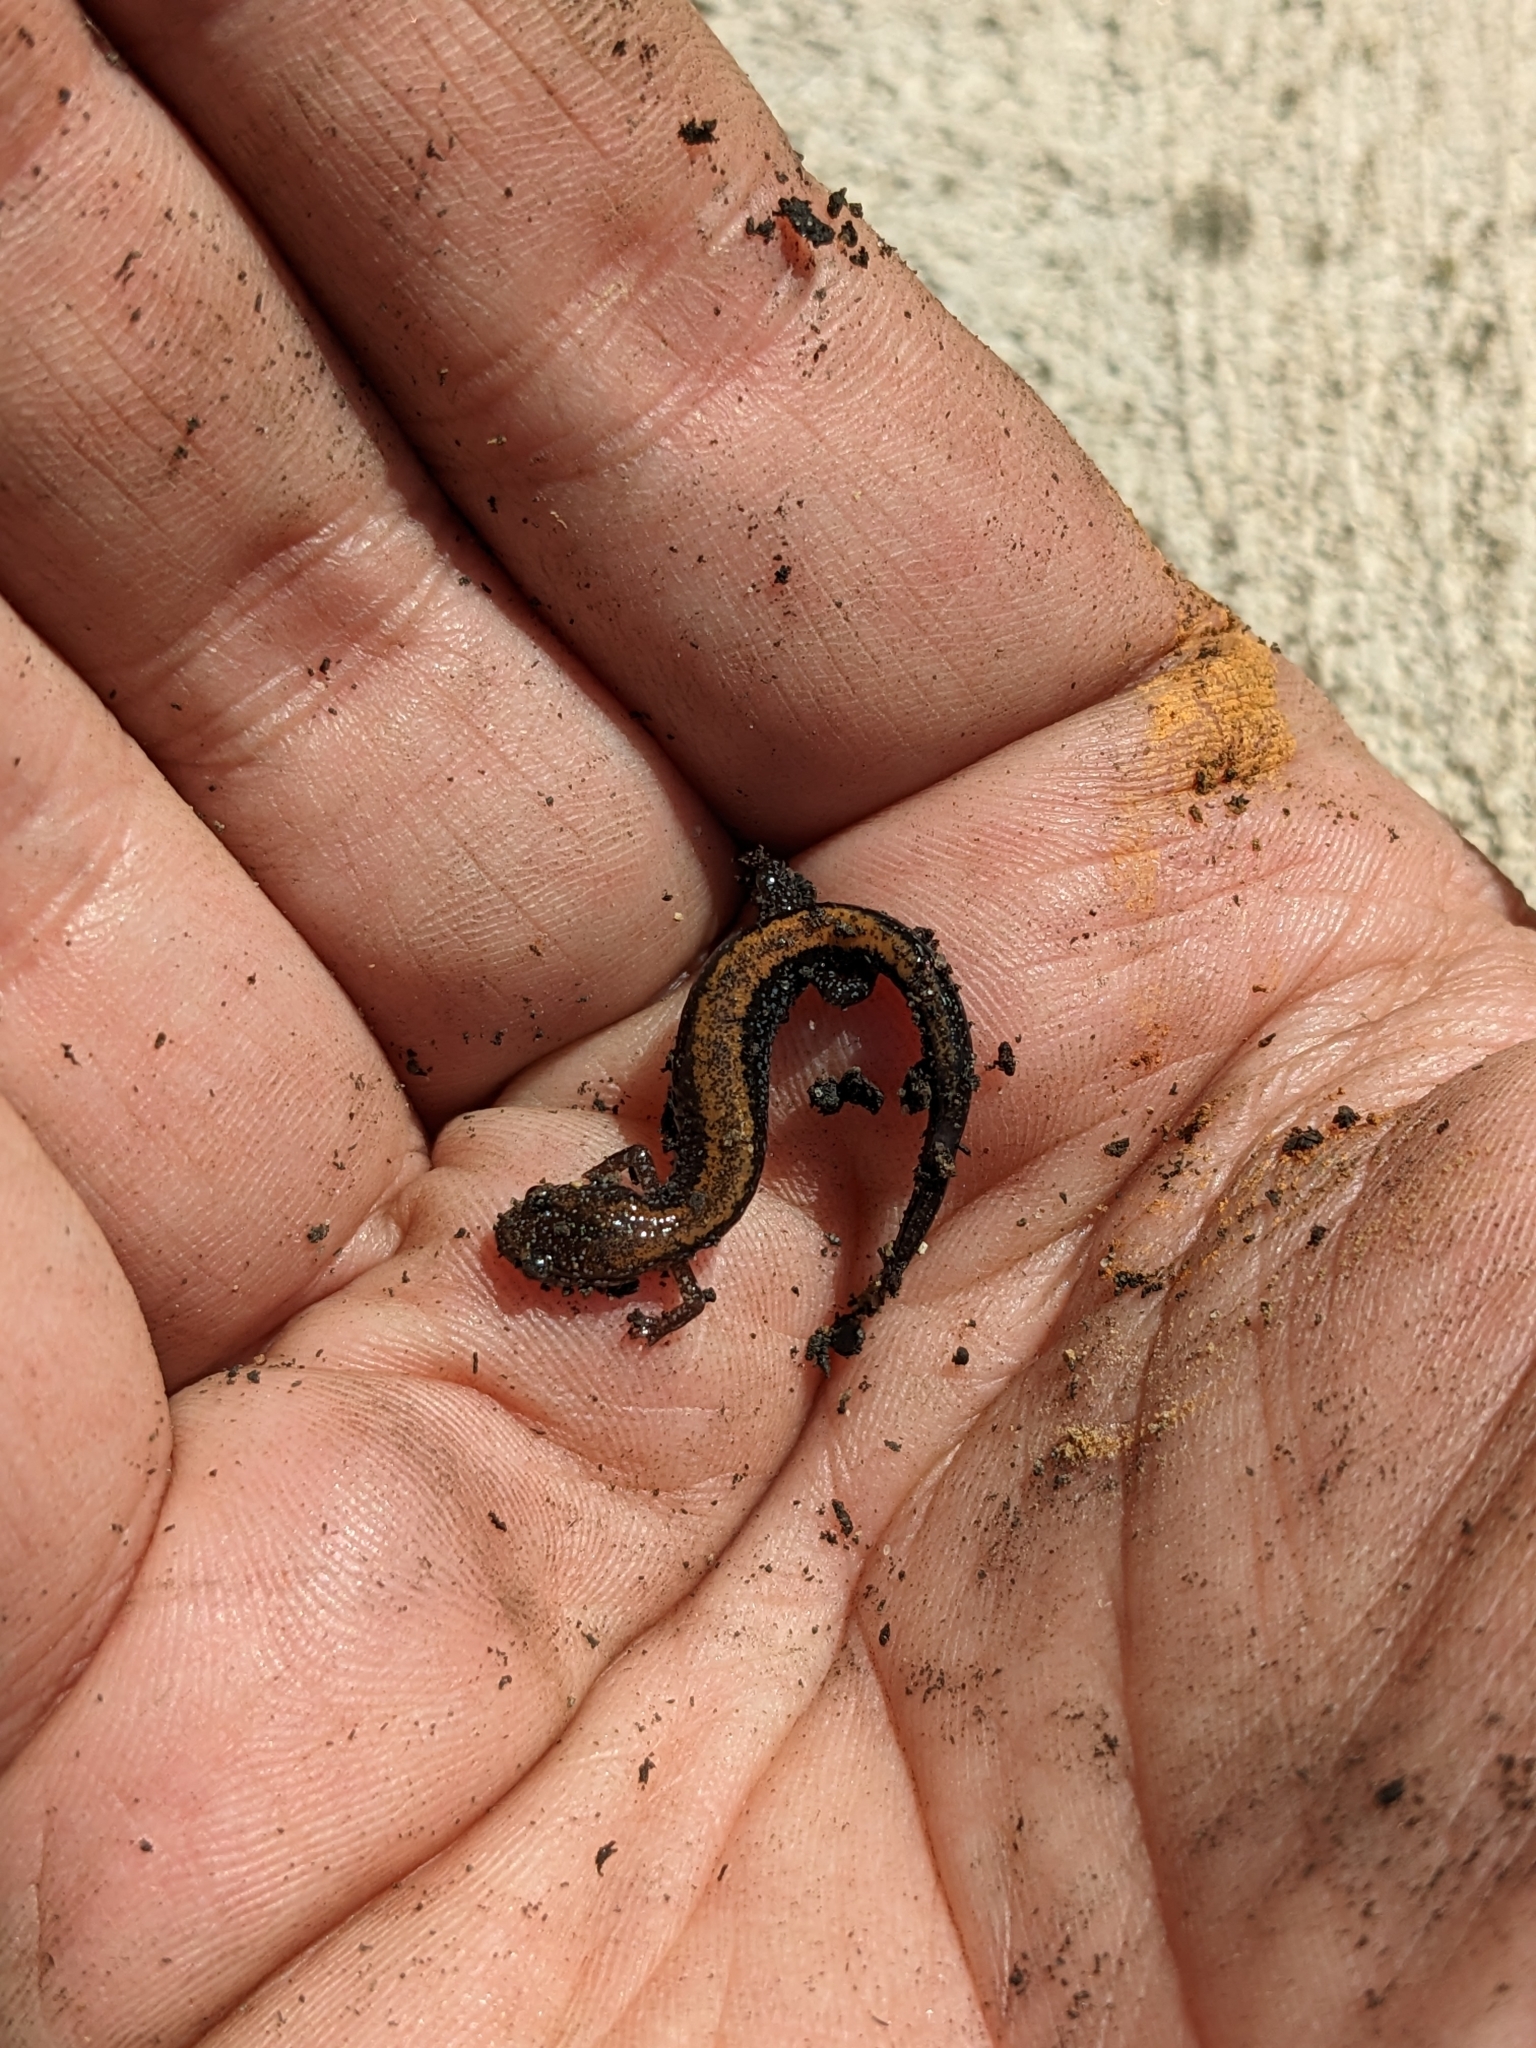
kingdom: Animalia
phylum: Chordata
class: Amphibia
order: Caudata
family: Plethodontidae
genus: Plethodon
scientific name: Plethodon cinereus
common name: Redback salamander
